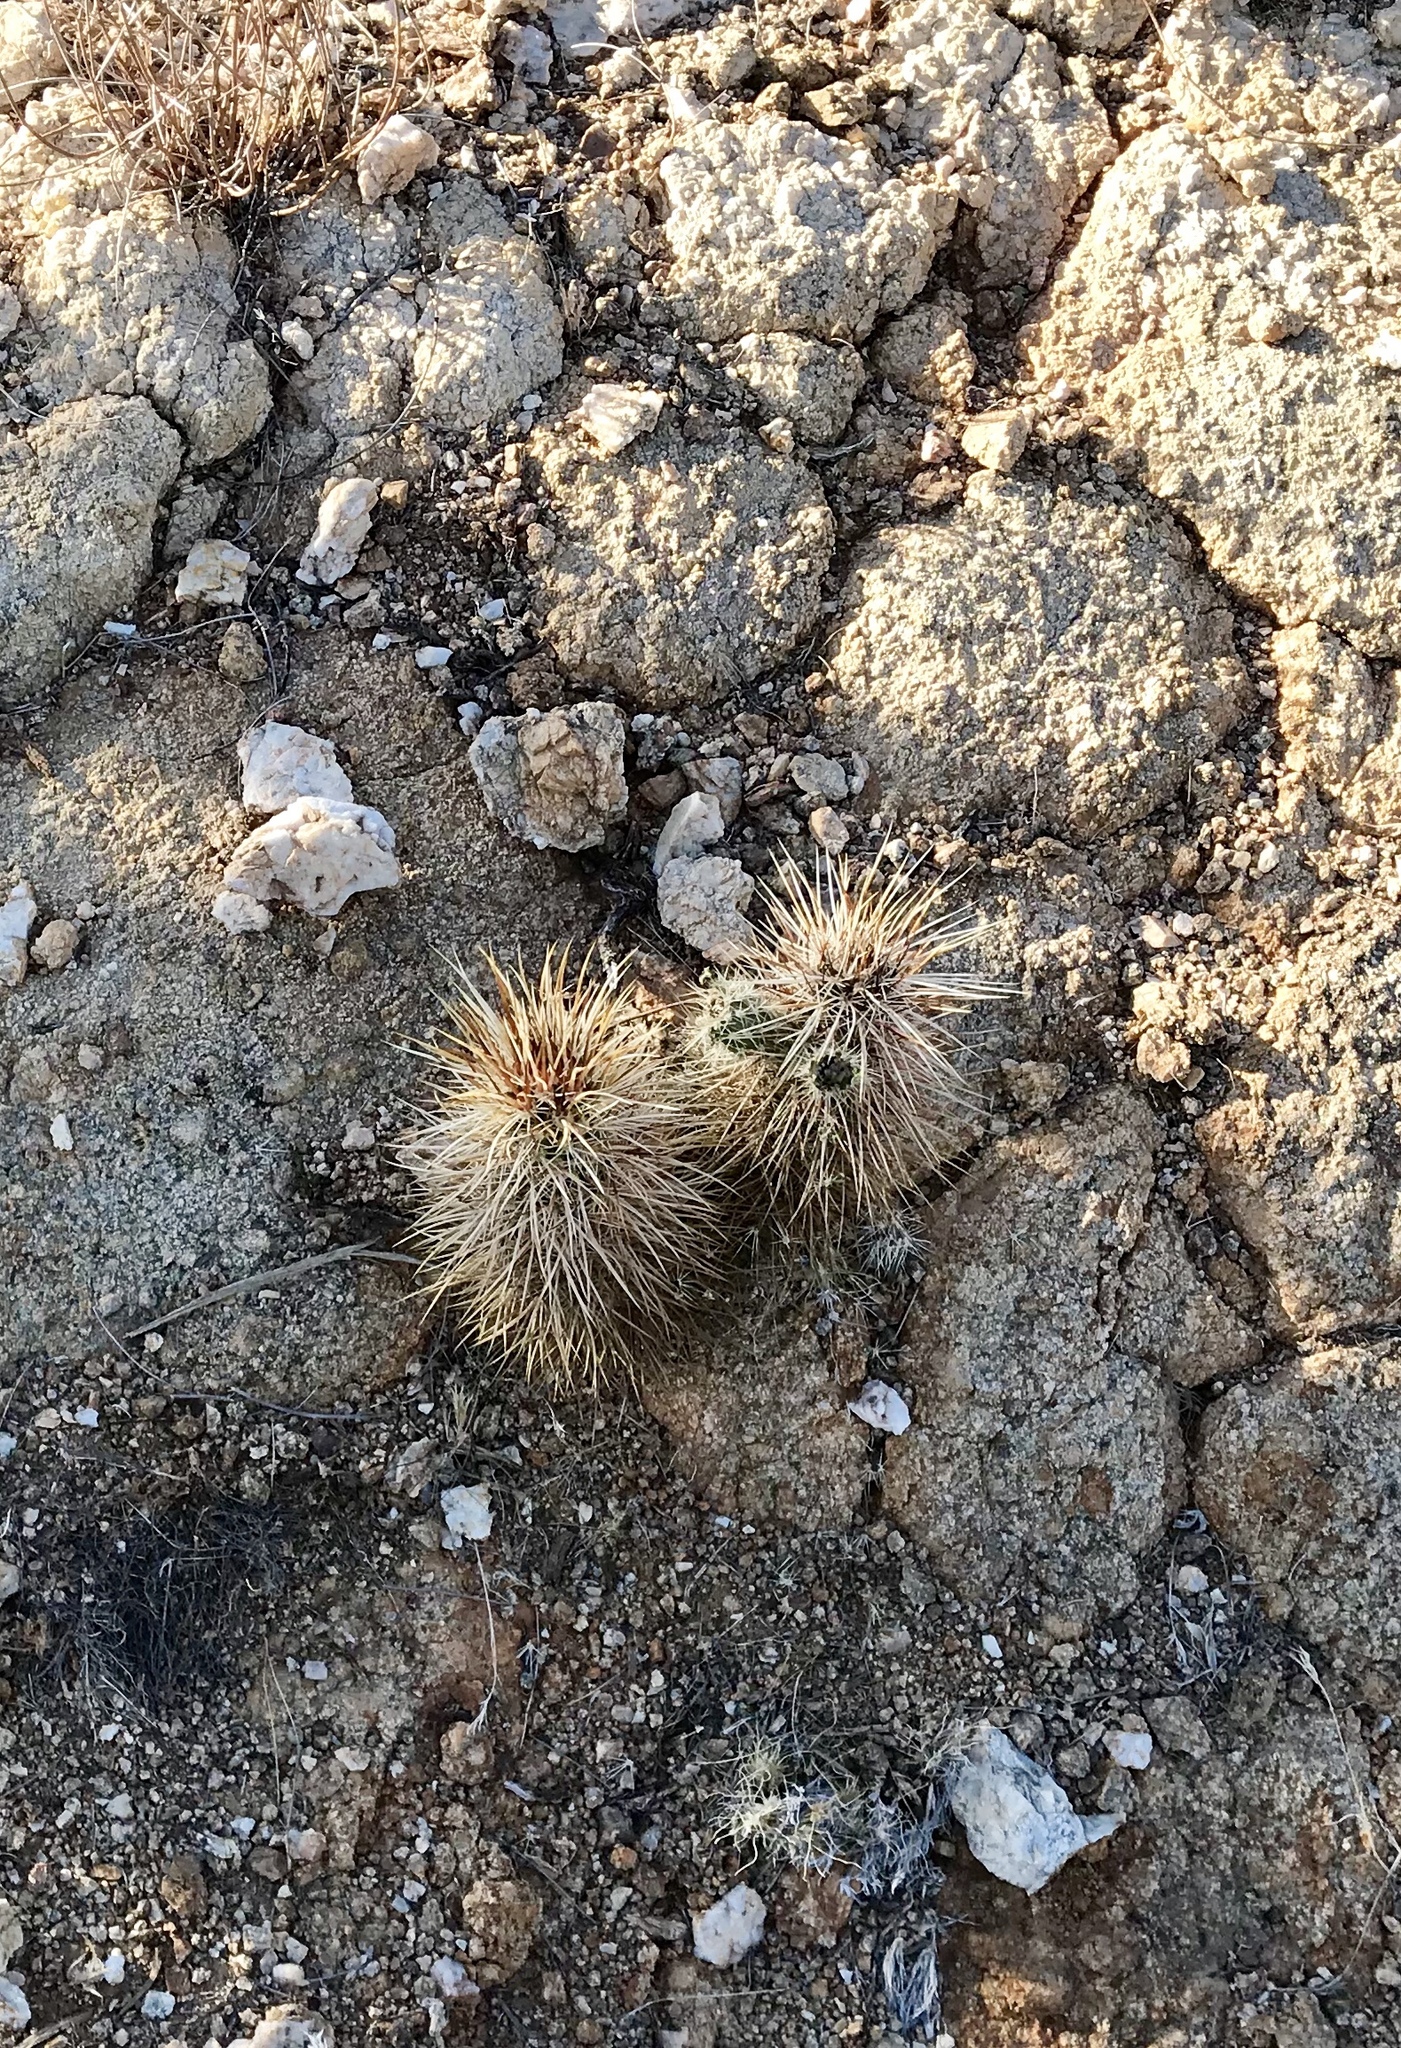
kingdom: Plantae
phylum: Tracheophyta
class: Magnoliopsida
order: Caryophyllales
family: Cactaceae
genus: Echinocereus
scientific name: Echinocereus engelmannii
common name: Engelmann's hedgehog cactus
